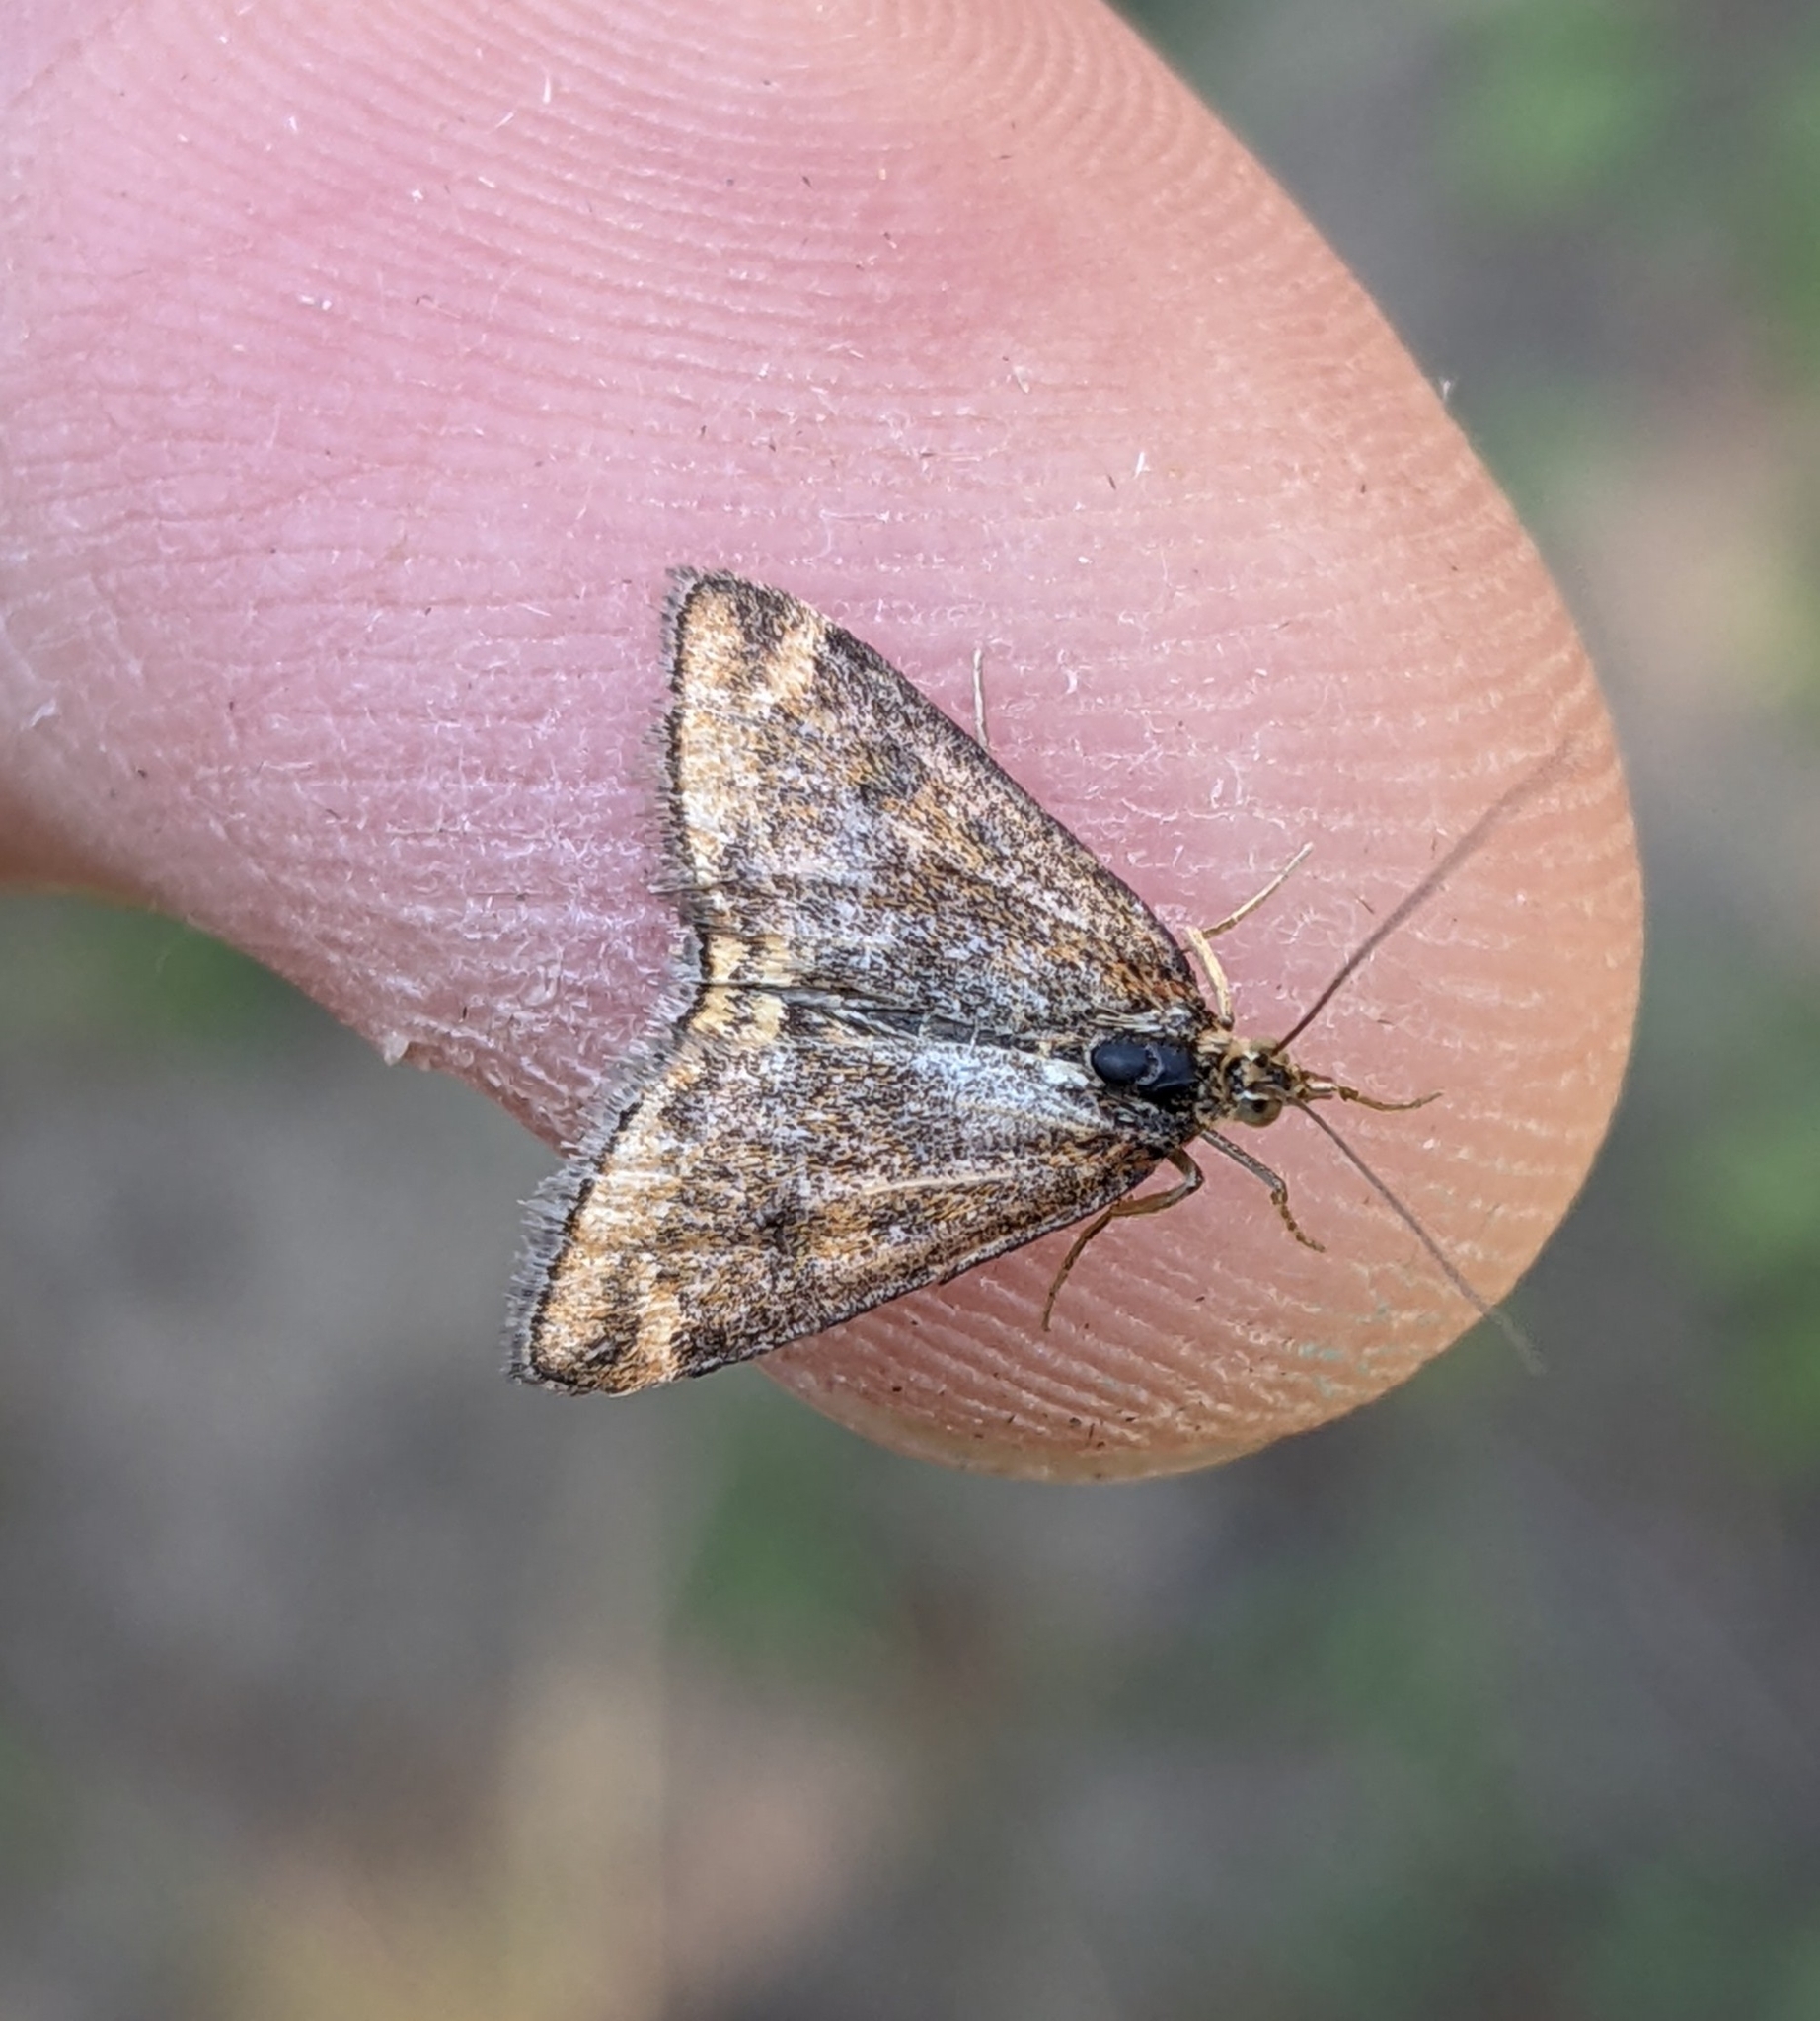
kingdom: Animalia
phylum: Arthropoda
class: Insecta
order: Lepidoptera
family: Crambidae
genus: Pyrausta
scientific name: Pyrausta subsequalis
